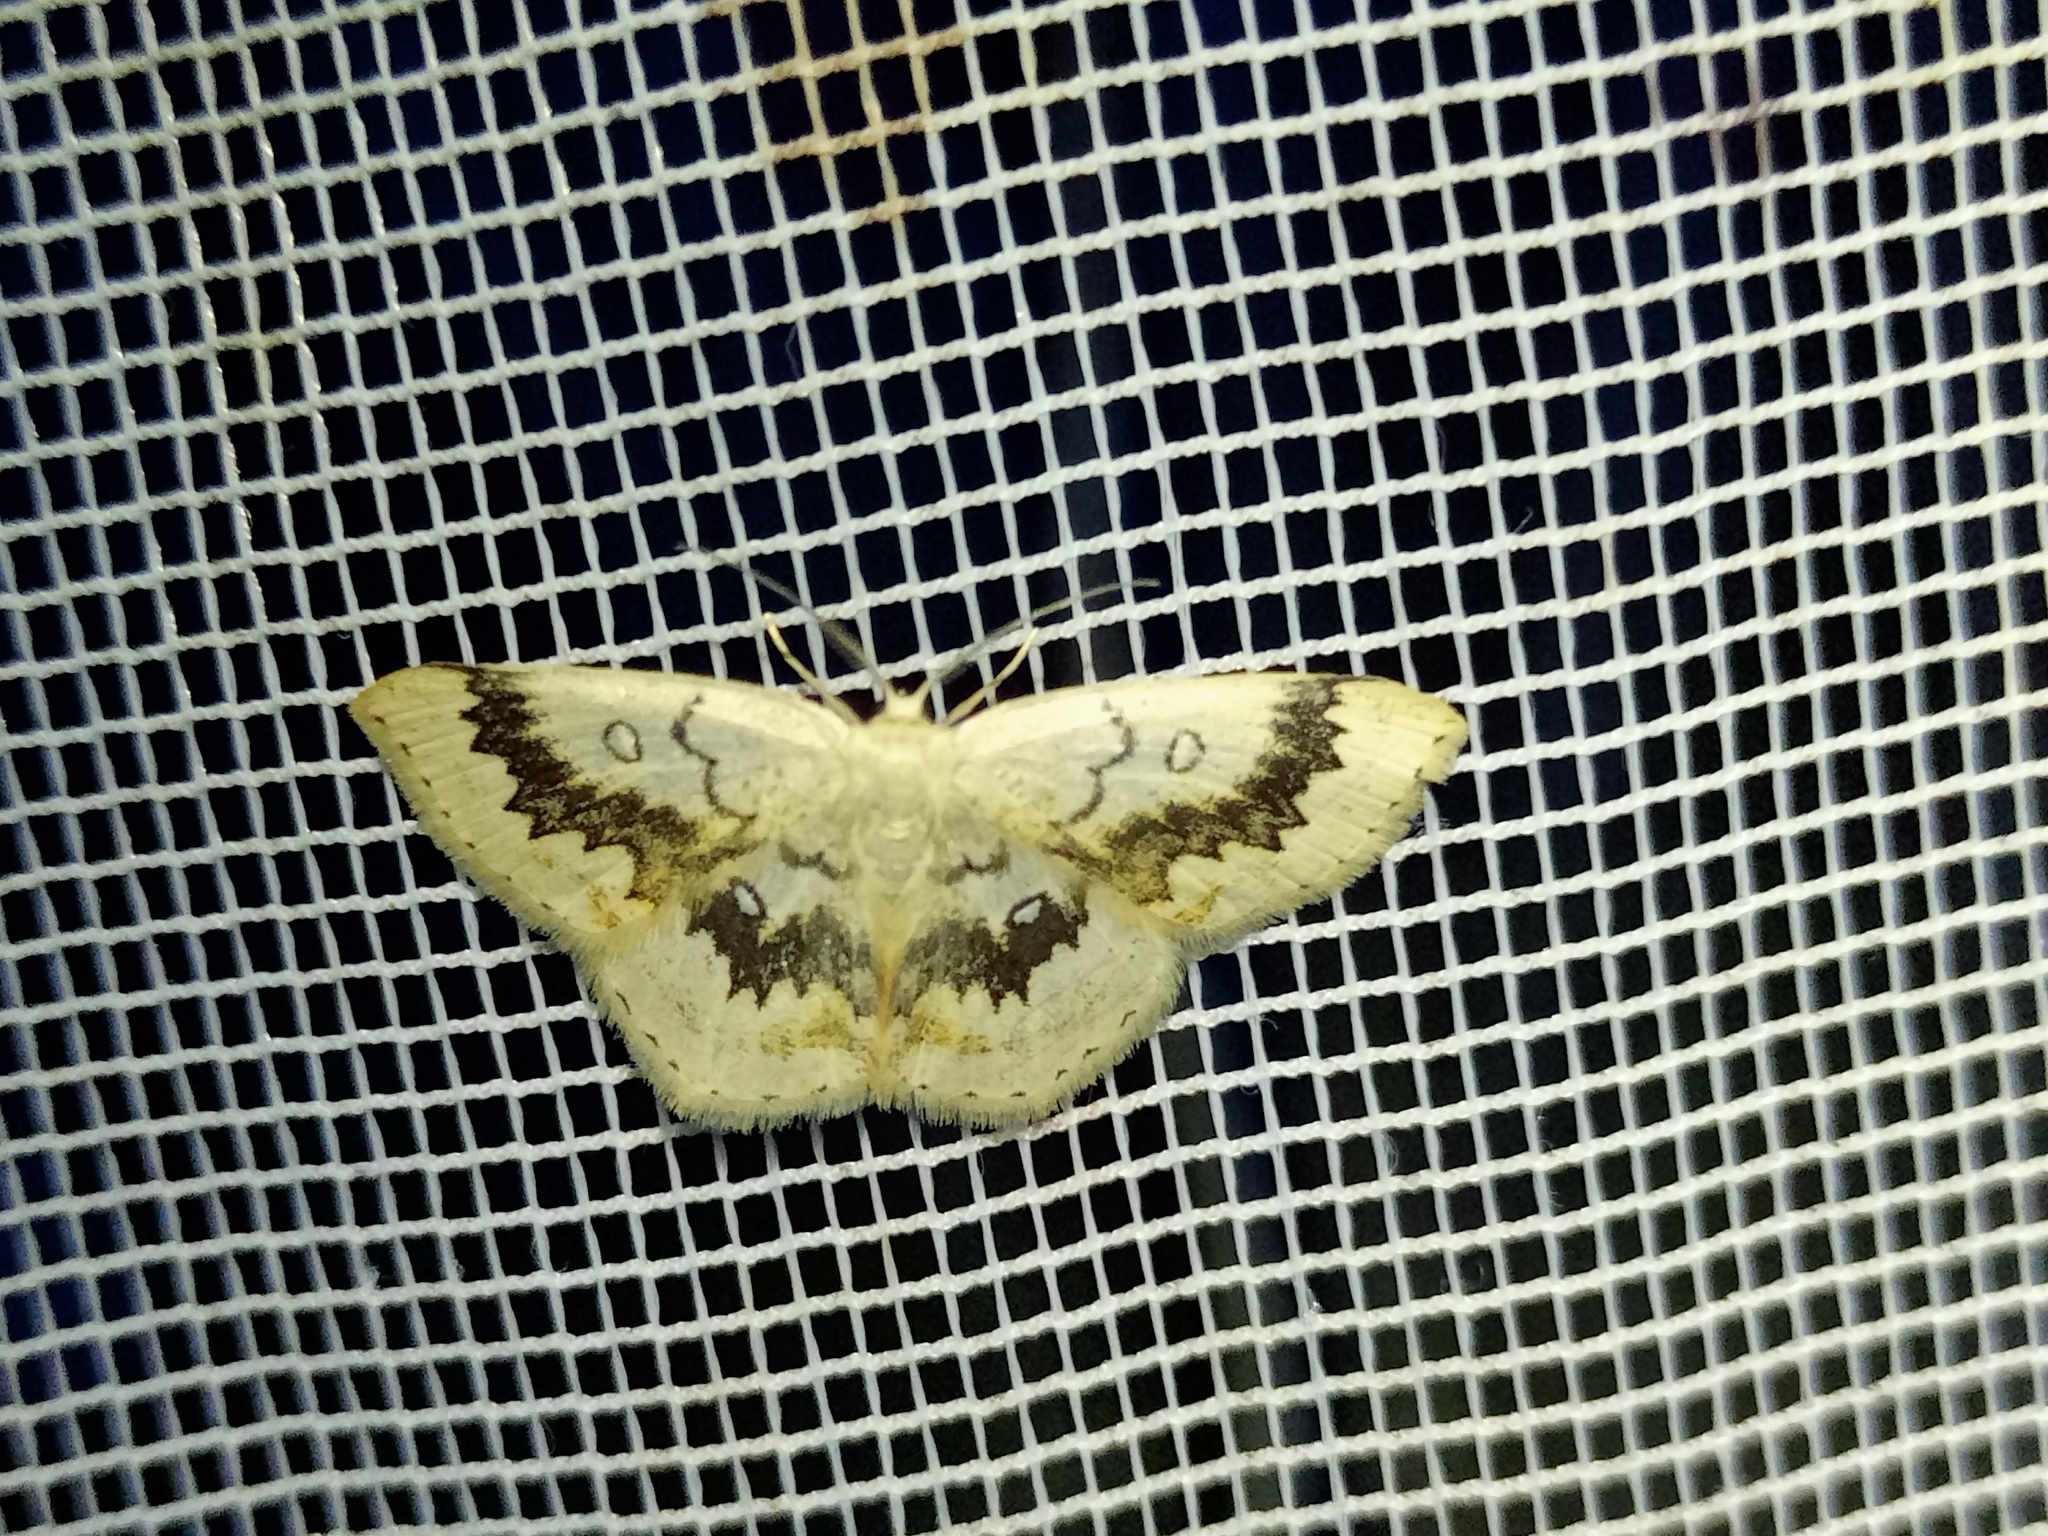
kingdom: Animalia
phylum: Arthropoda
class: Insecta
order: Lepidoptera
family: Geometridae
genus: Cyclophora
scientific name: Cyclophora annularia
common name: Mocha
